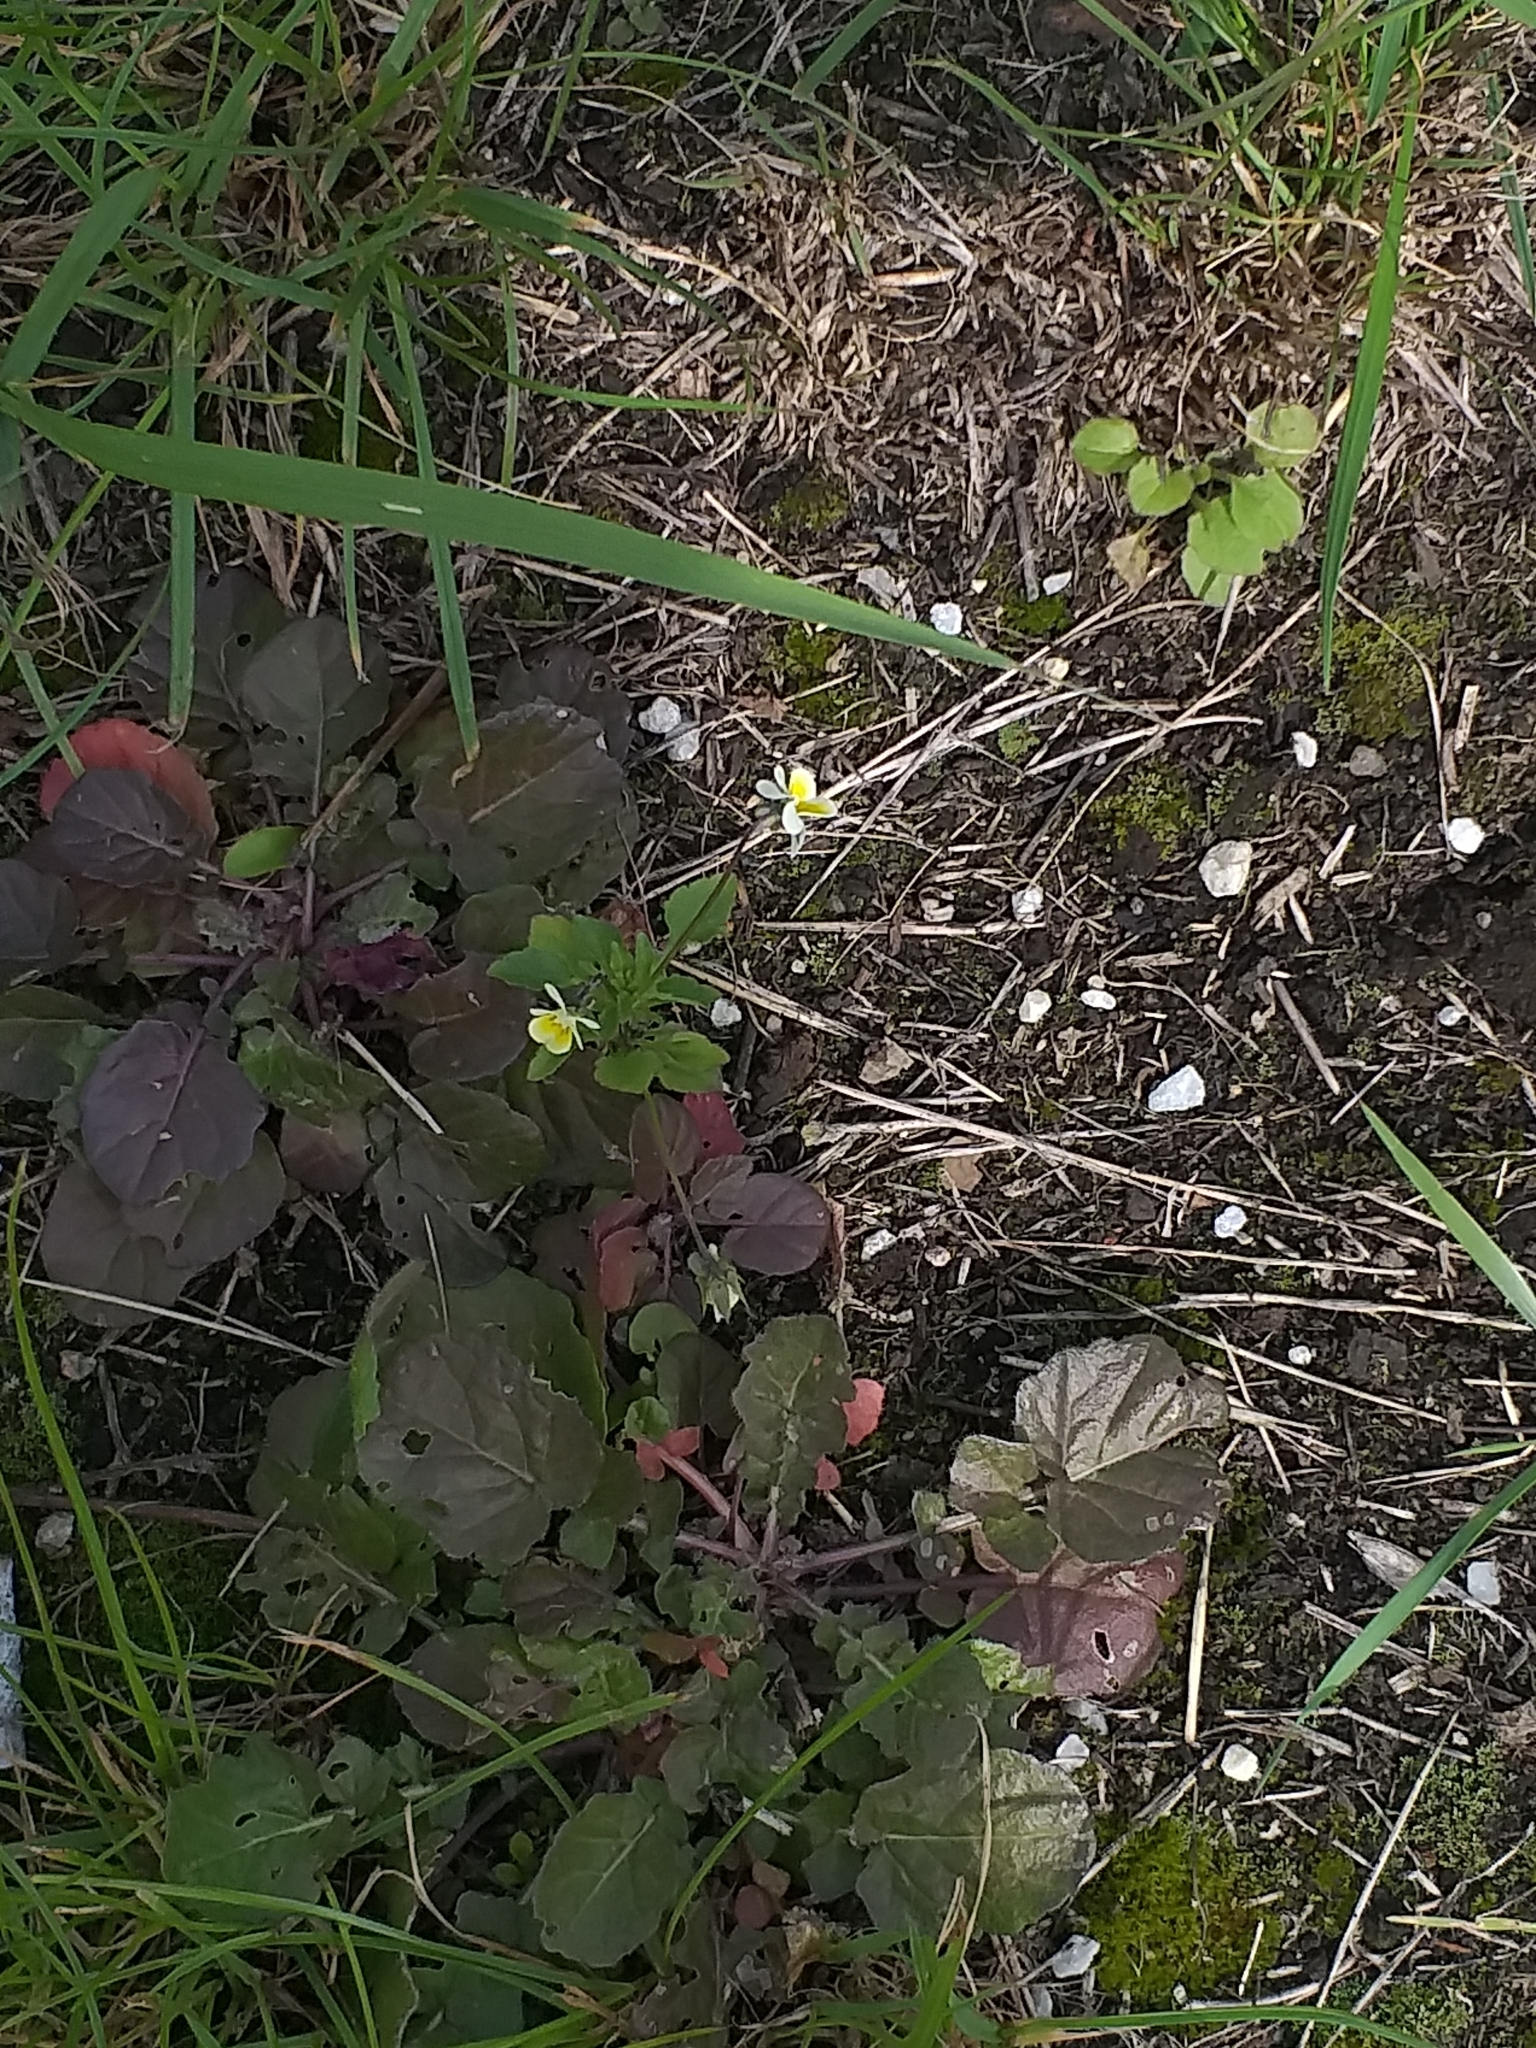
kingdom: Plantae
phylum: Tracheophyta
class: Magnoliopsida
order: Malpighiales
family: Violaceae
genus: Viola
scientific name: Viola arvensis
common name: Field pansy
